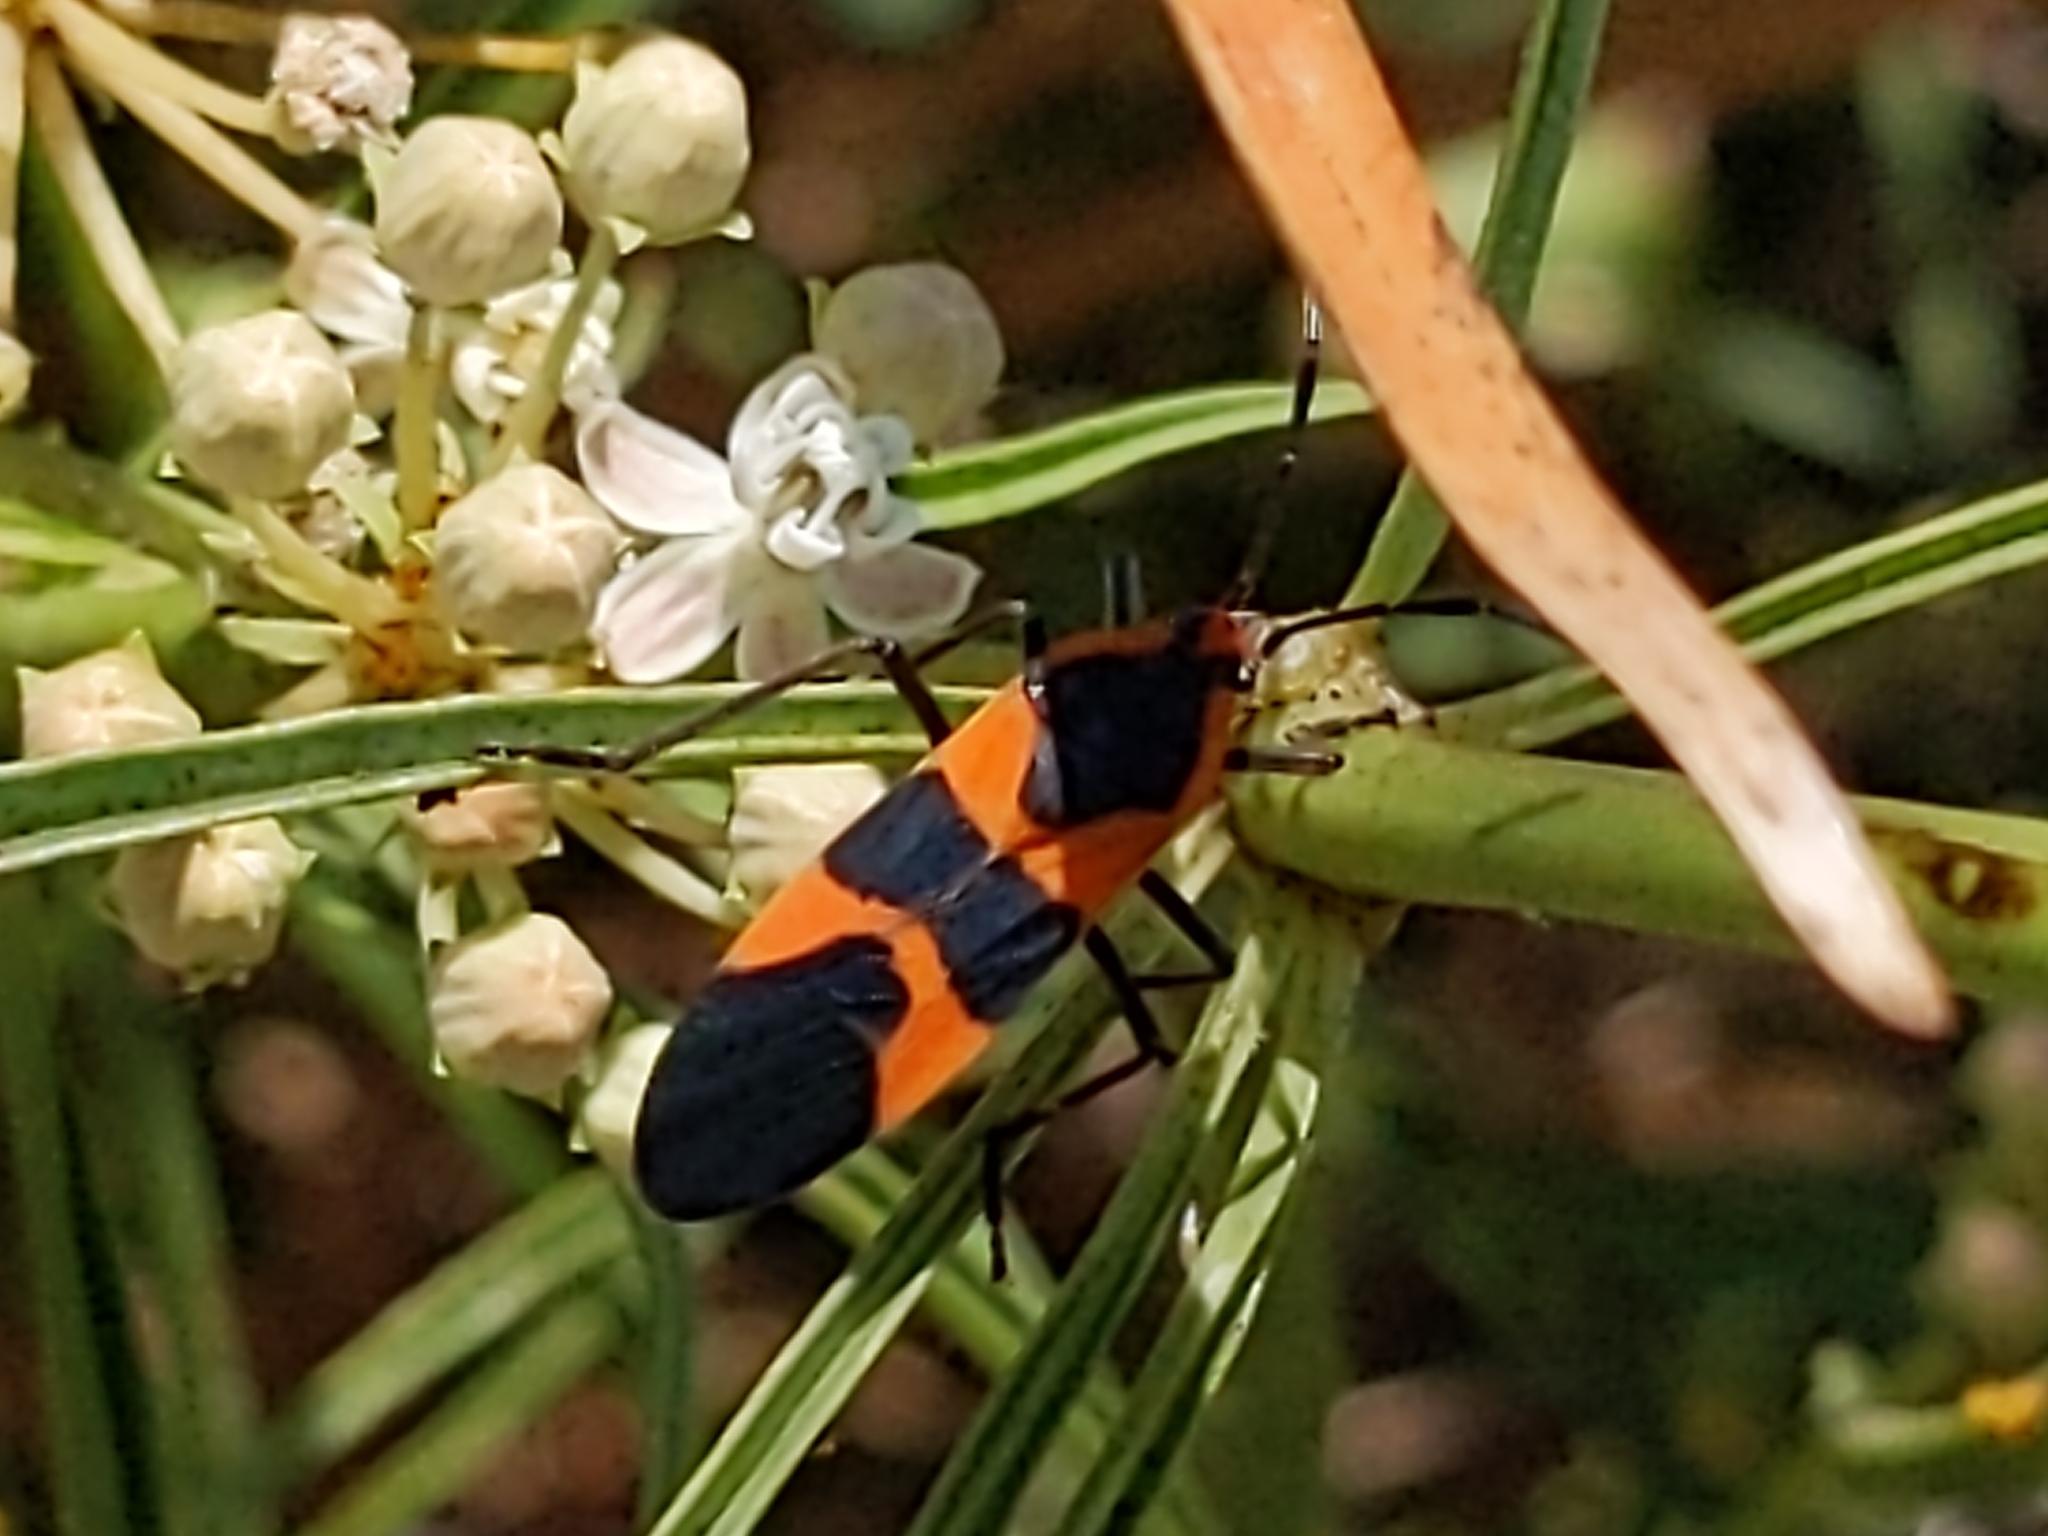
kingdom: Animalia
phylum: Arthropoda
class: Insecta
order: Hemiptera
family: Lygaeidae
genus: Oncopeltus
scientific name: Oncopeltus fasciatus
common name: Large milkweed bug
